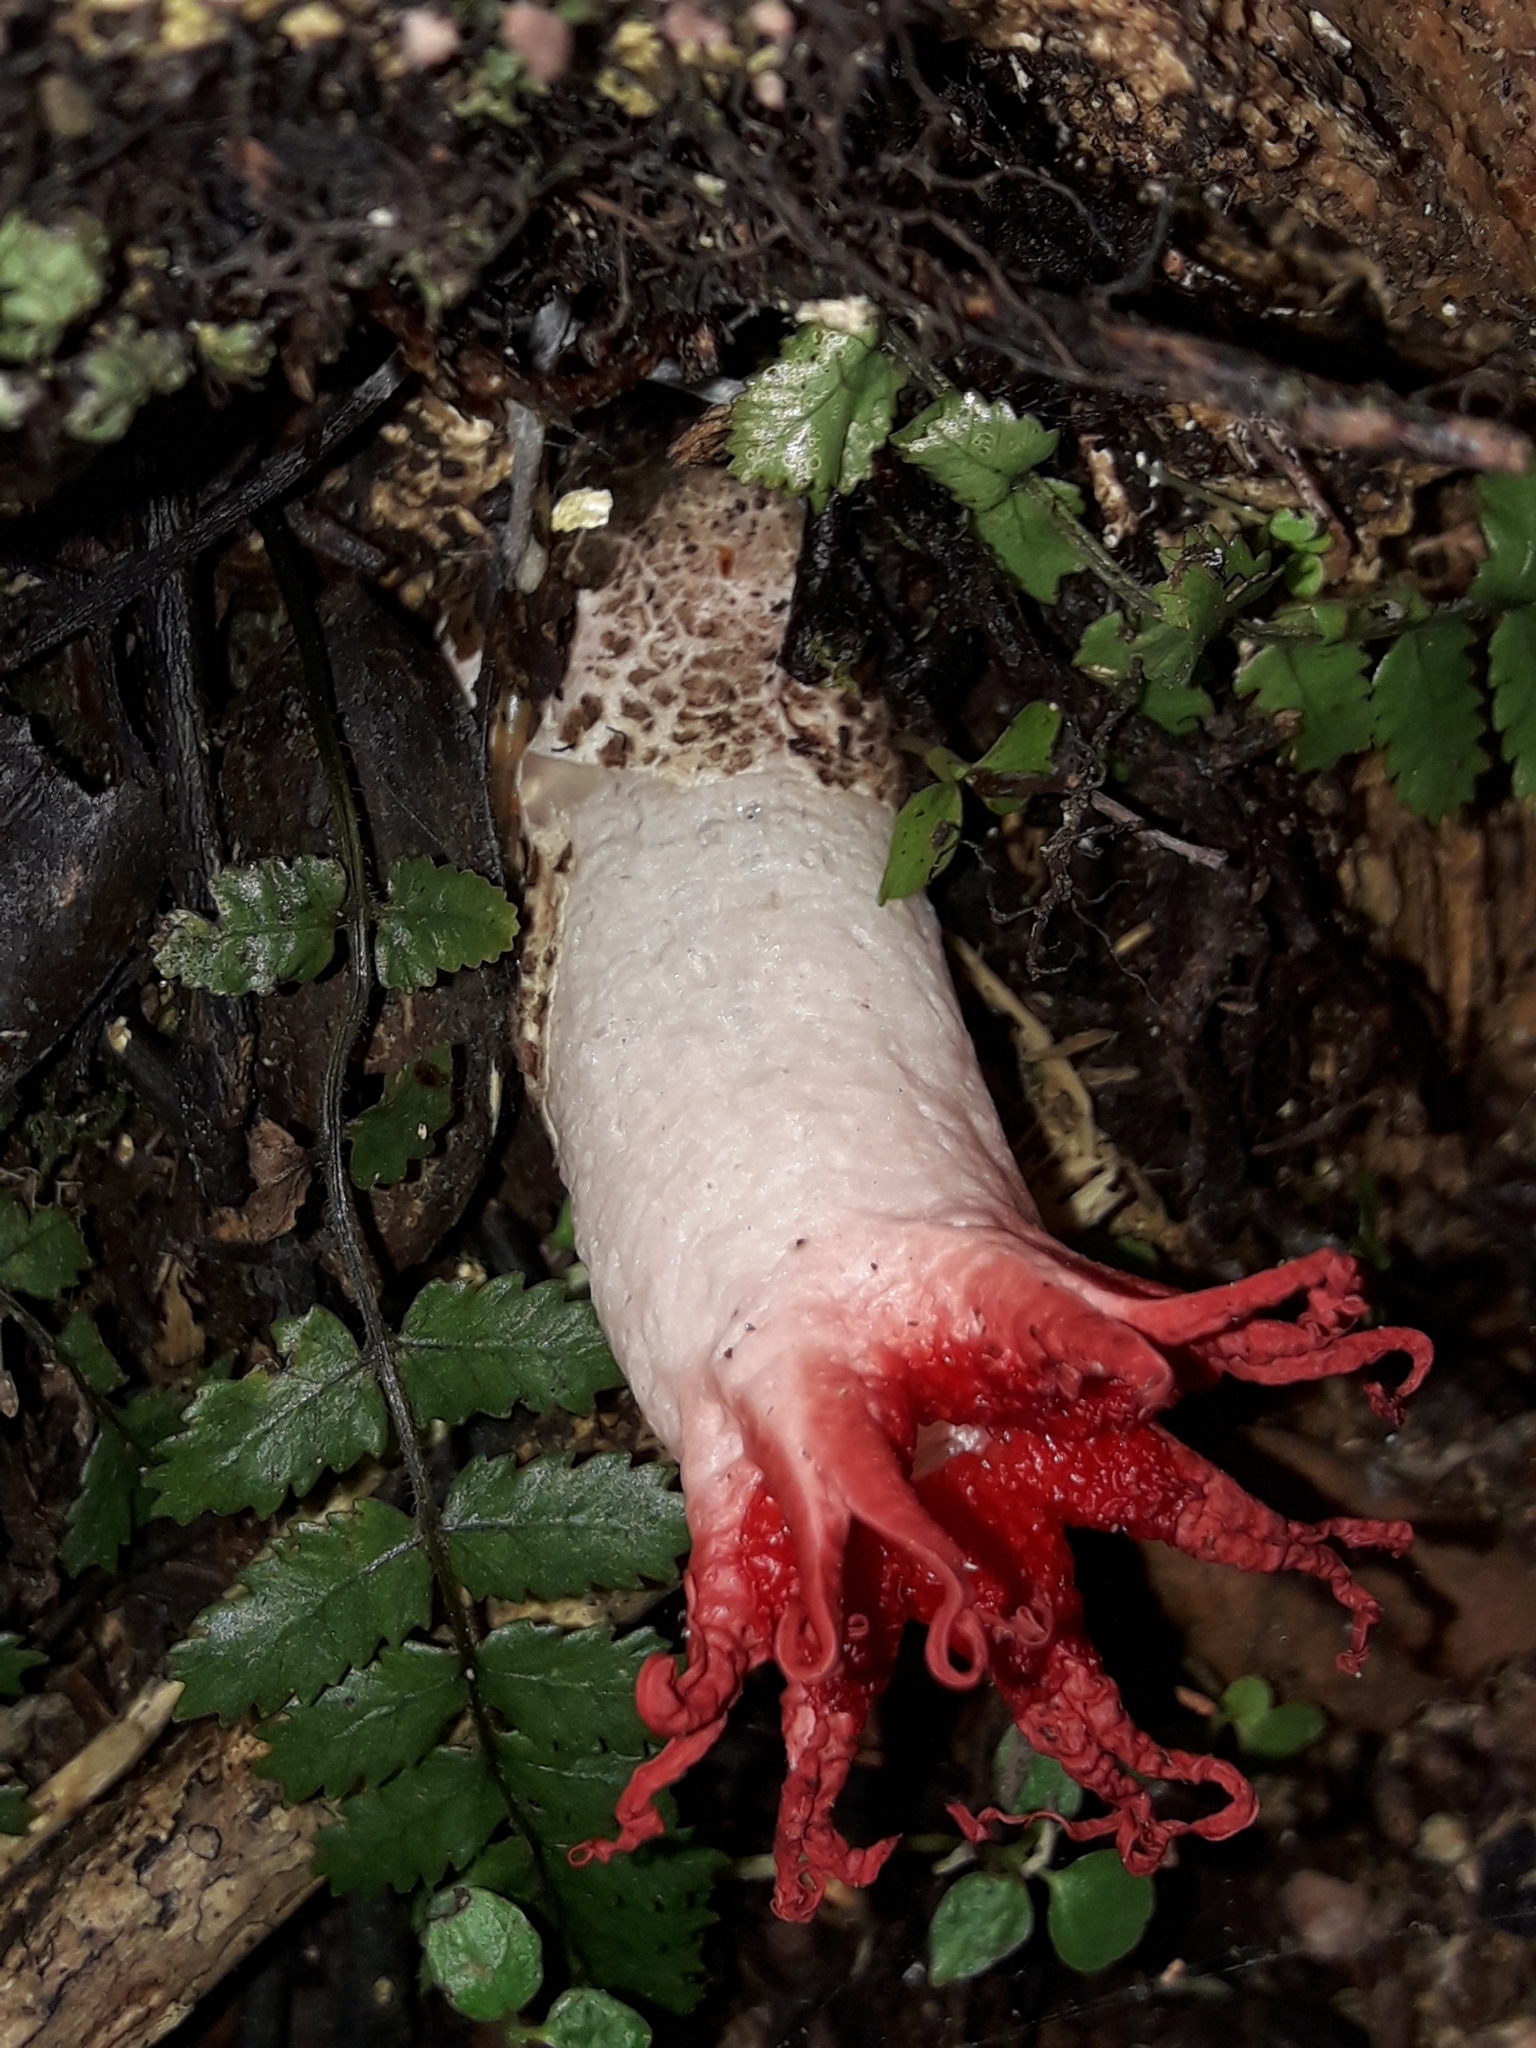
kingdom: Fungi
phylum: Basidiomycota
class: Agaricomycetes
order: Phallales
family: Phallaceae
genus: Aseroe
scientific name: Aseroe rubra
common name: Starfish fungus
